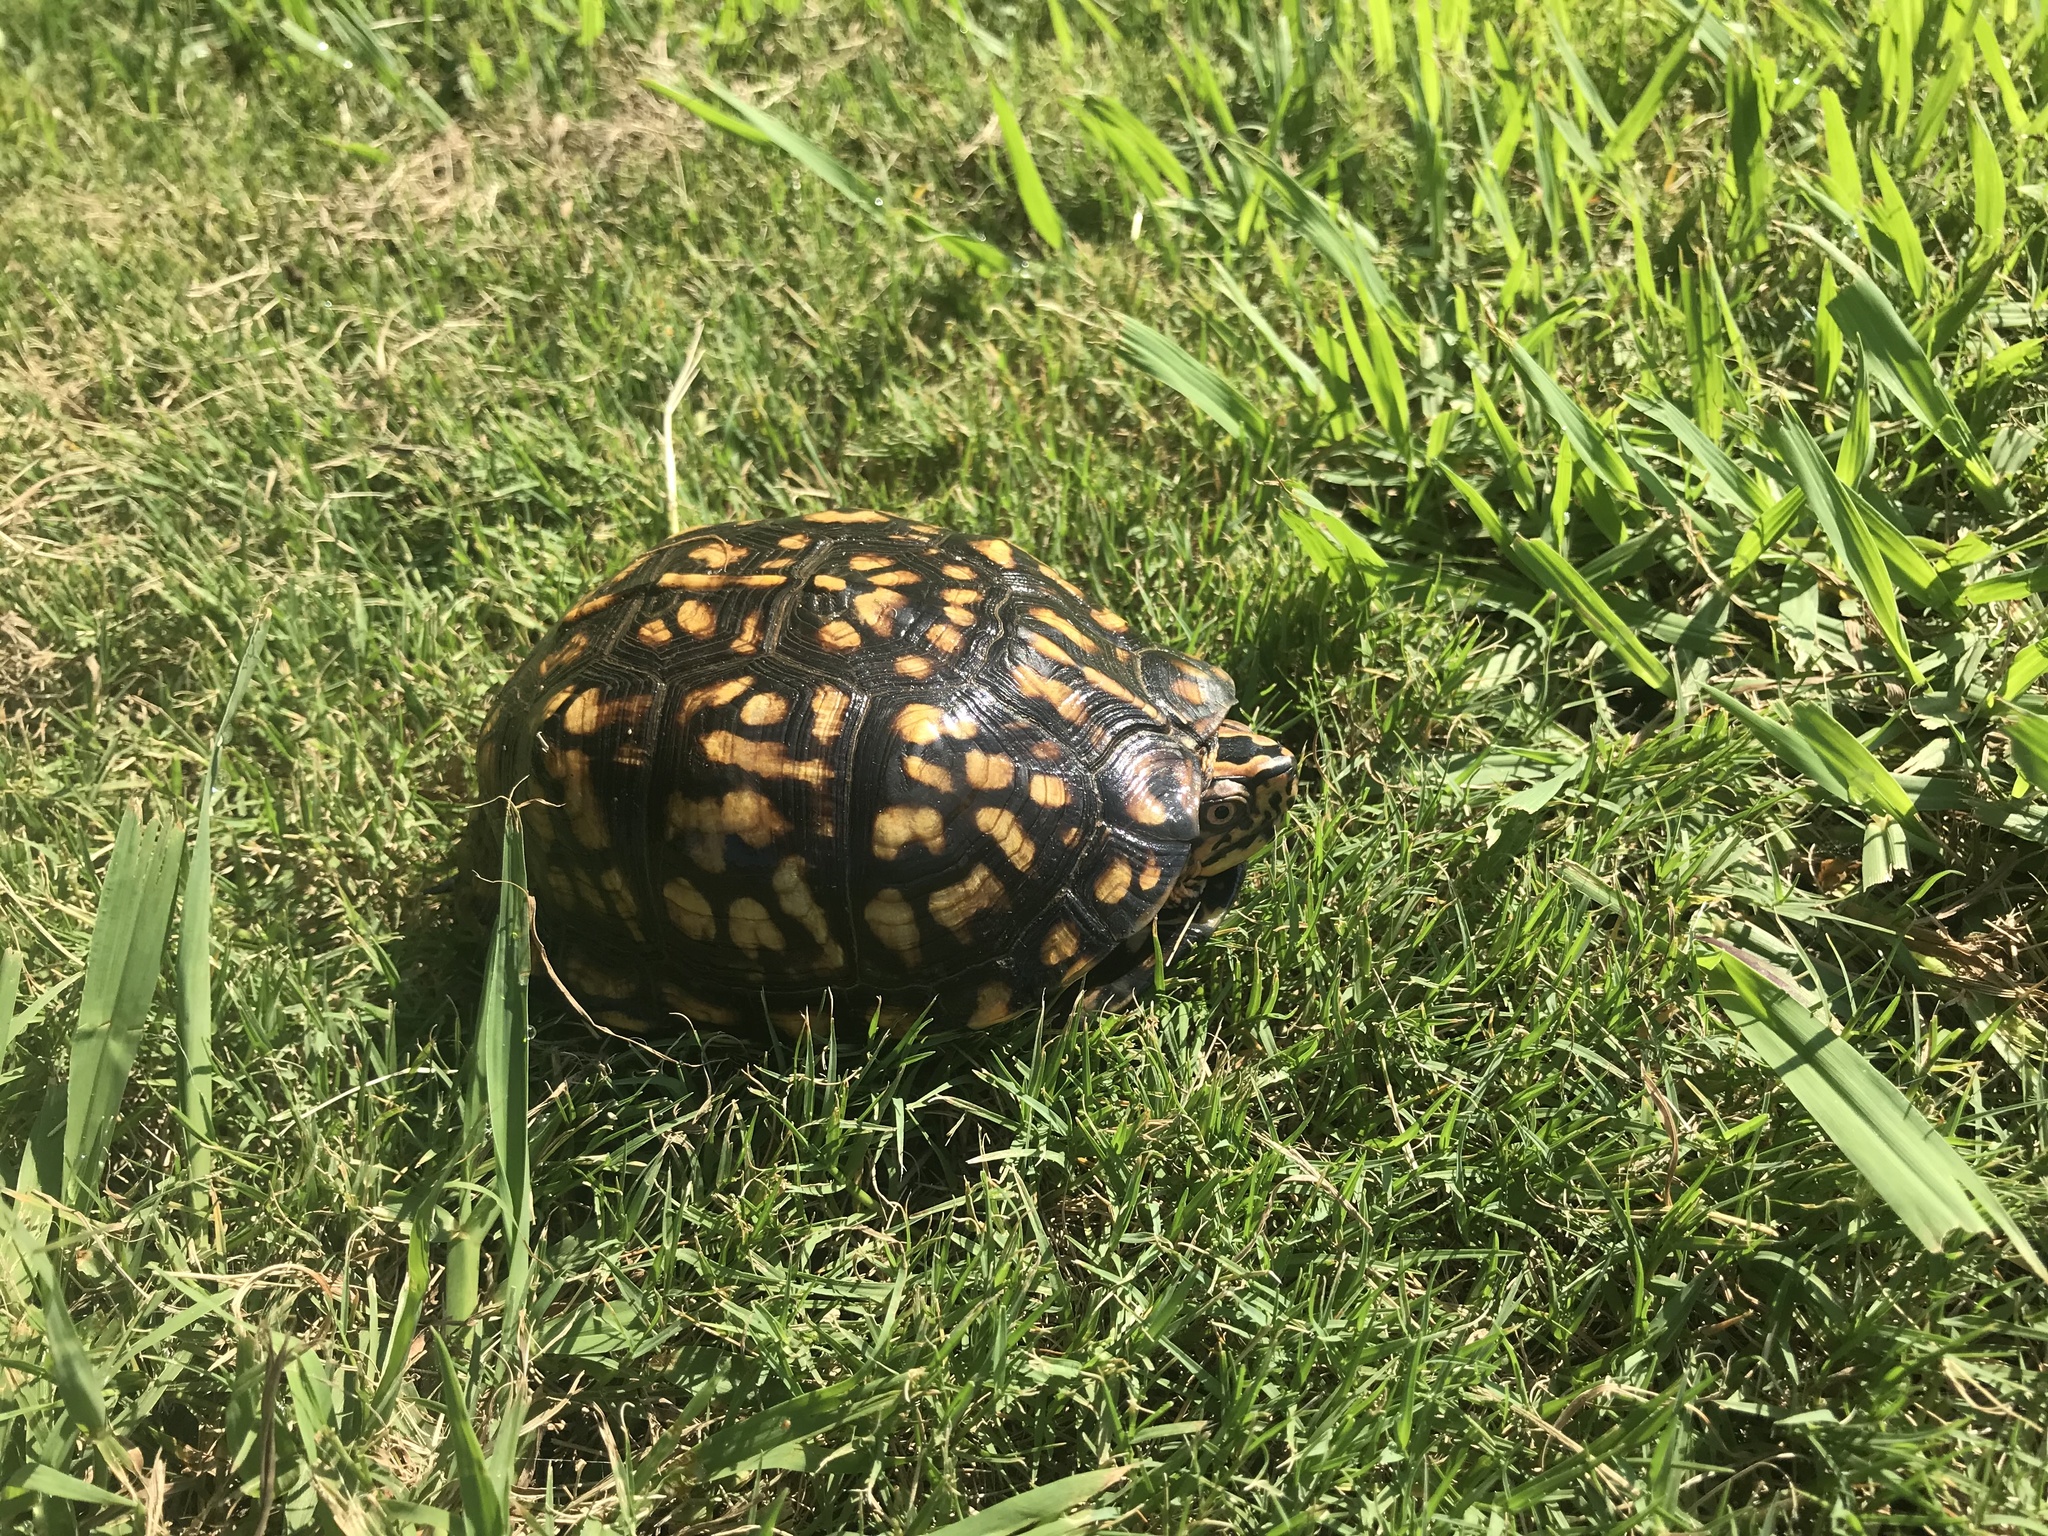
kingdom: Animalia
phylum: Chordata
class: Testudines
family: Emydidae
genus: Terrapene
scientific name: Terrapene carolina
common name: Common box turtle
